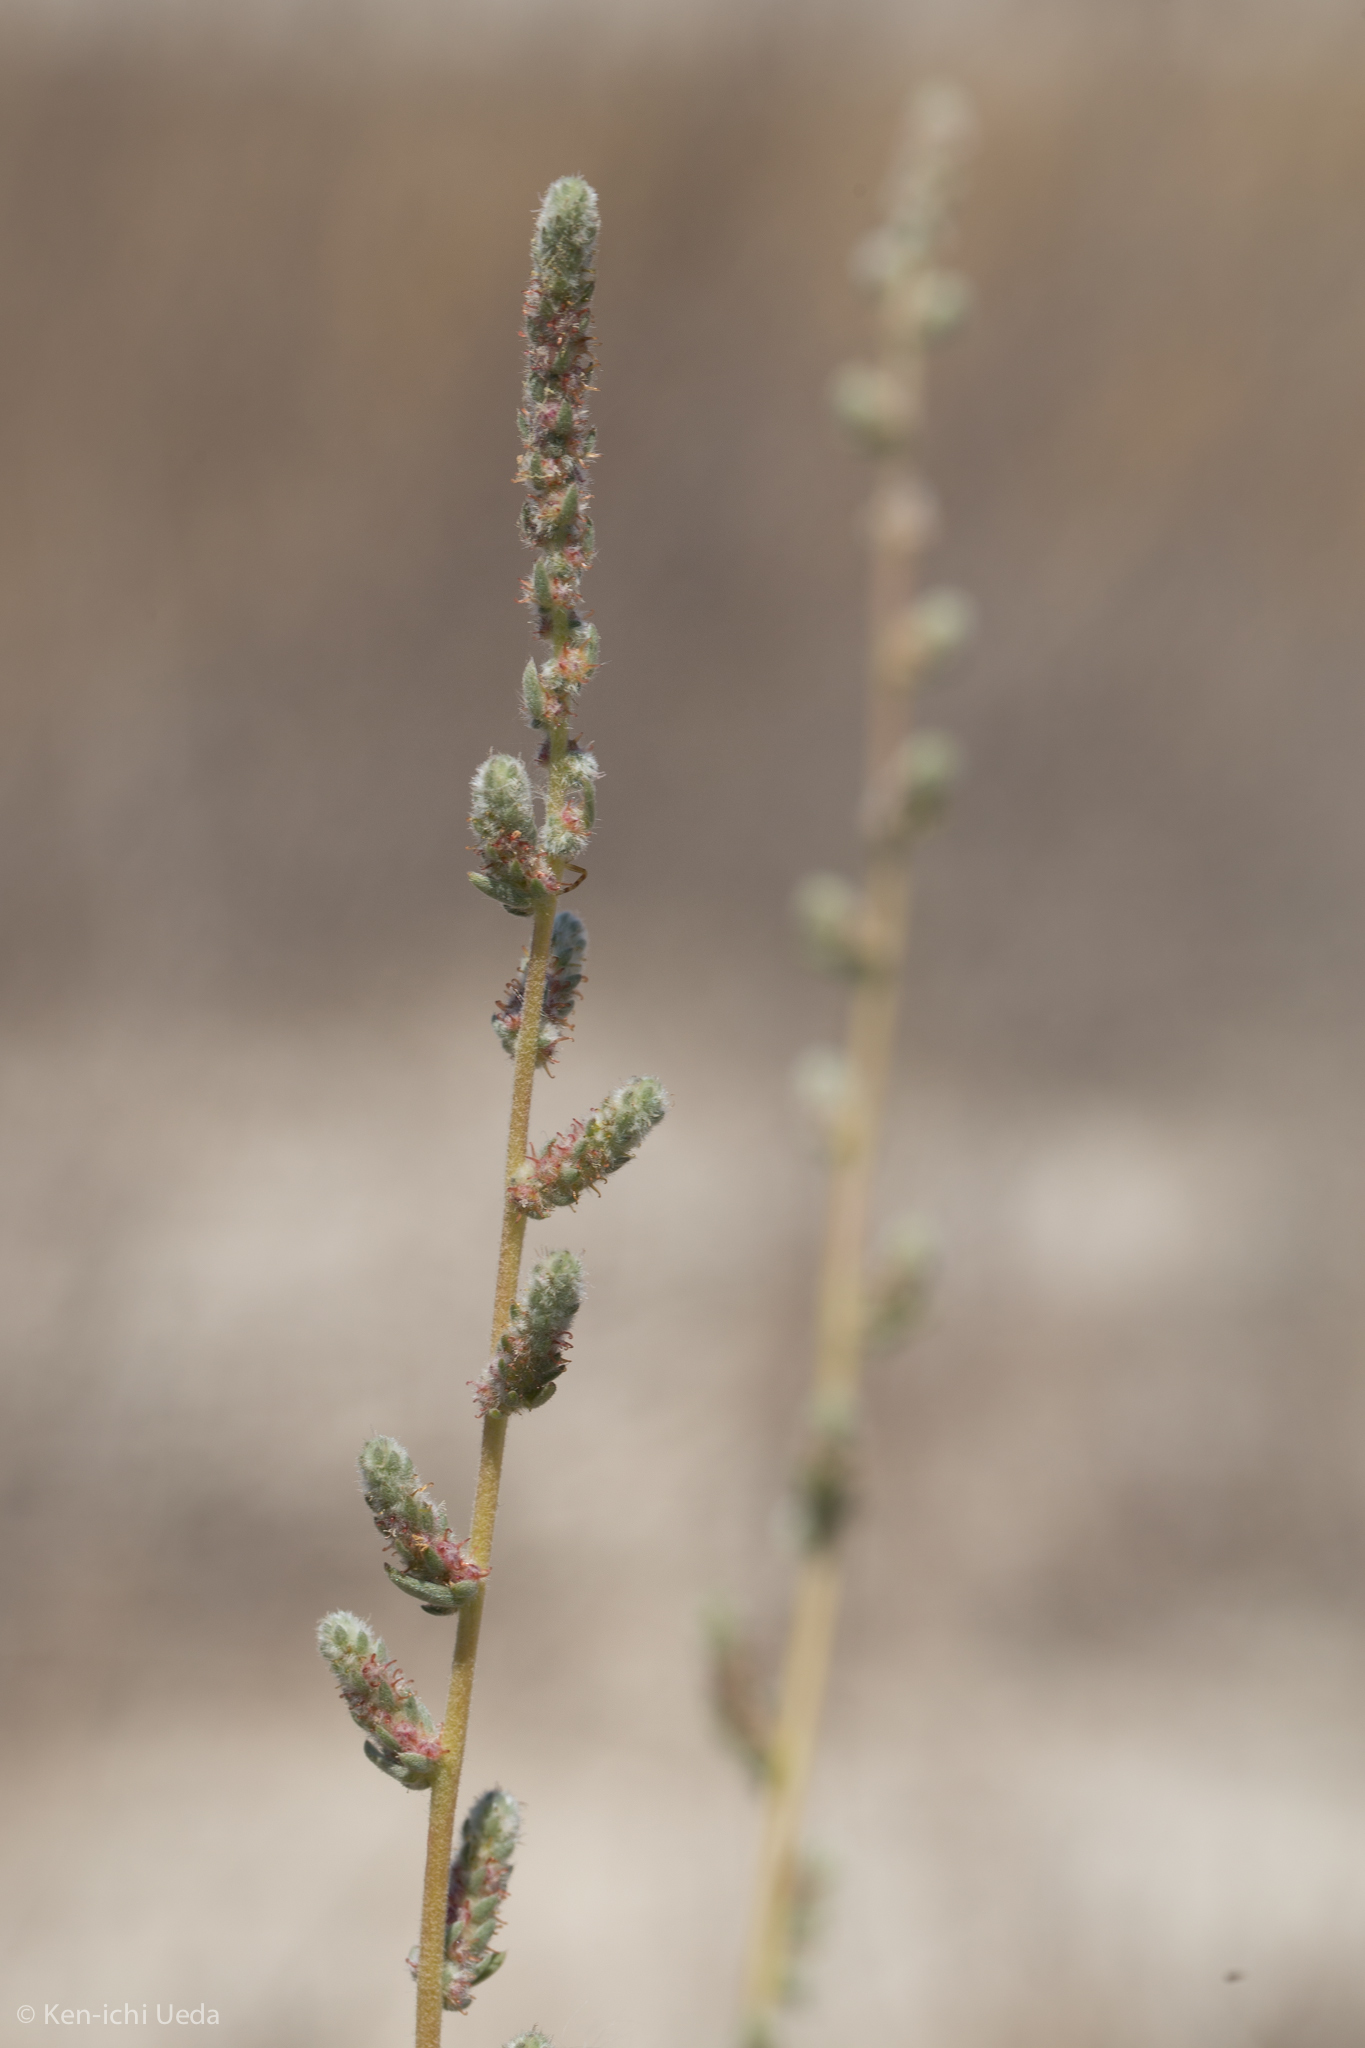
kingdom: Plantae
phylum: Tracheophyta
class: Magnoliopsida
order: Caryophyllales
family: Amaranthaceae
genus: Bassia
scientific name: Bassia hyssopifolia
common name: Fivehorn smotherweed
